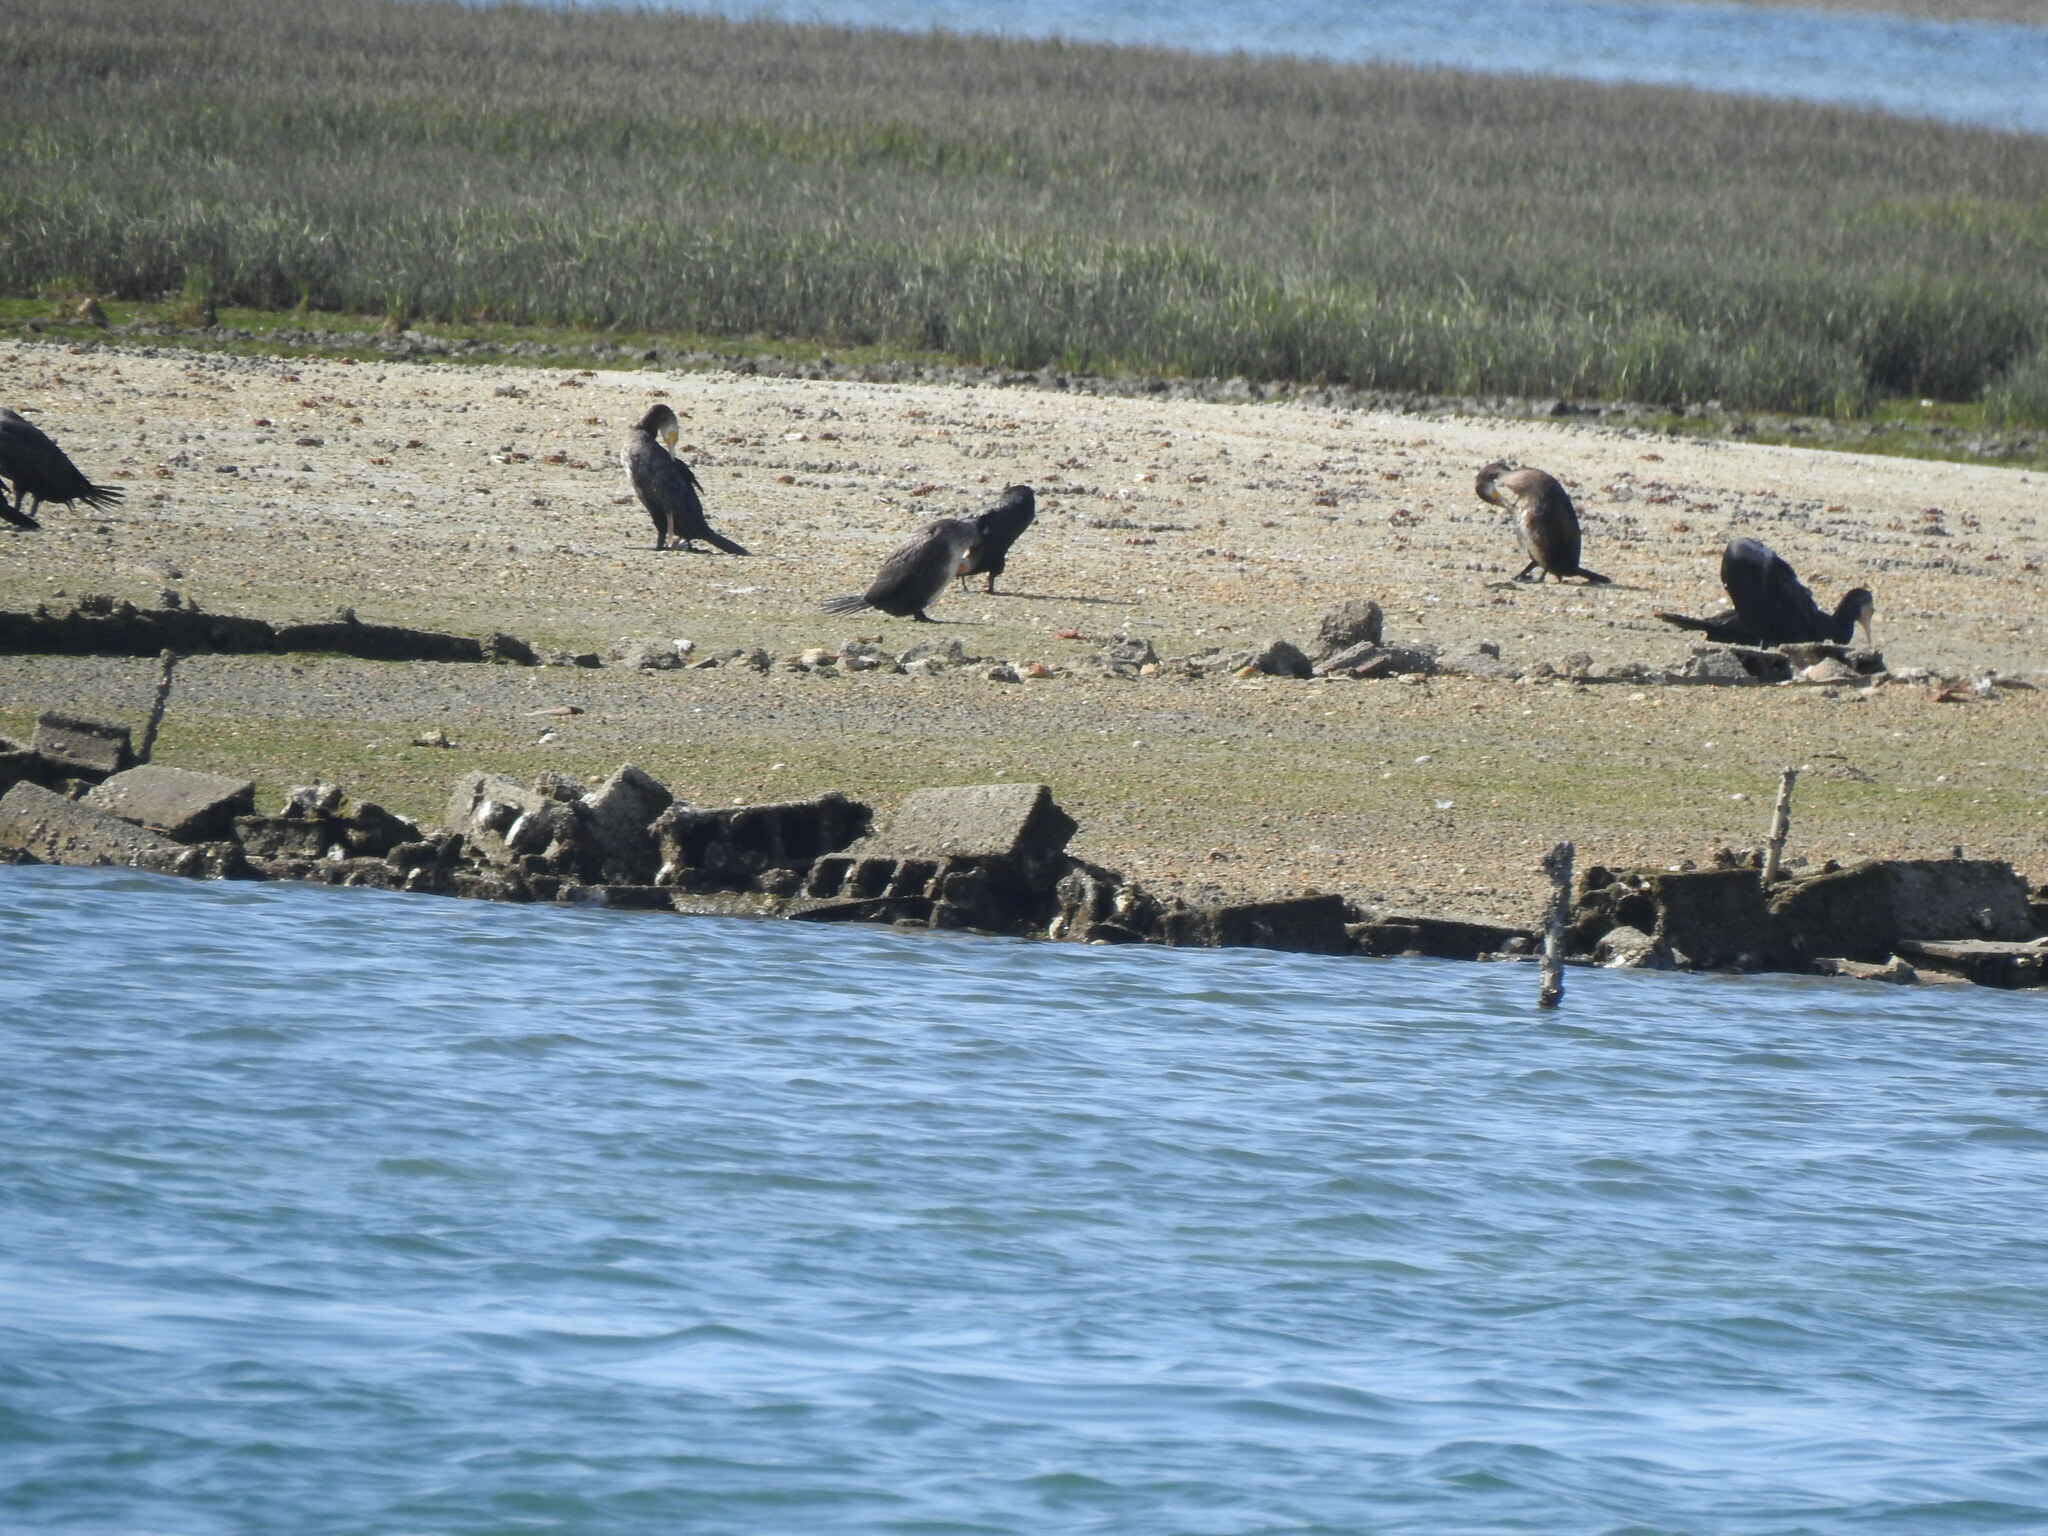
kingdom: Animalia
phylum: Chordata
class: Aves
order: Suliformes
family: Phalacrocoracidae
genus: Phalacrocorax
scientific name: Phalacrocorax carbo
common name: Great cormorant
